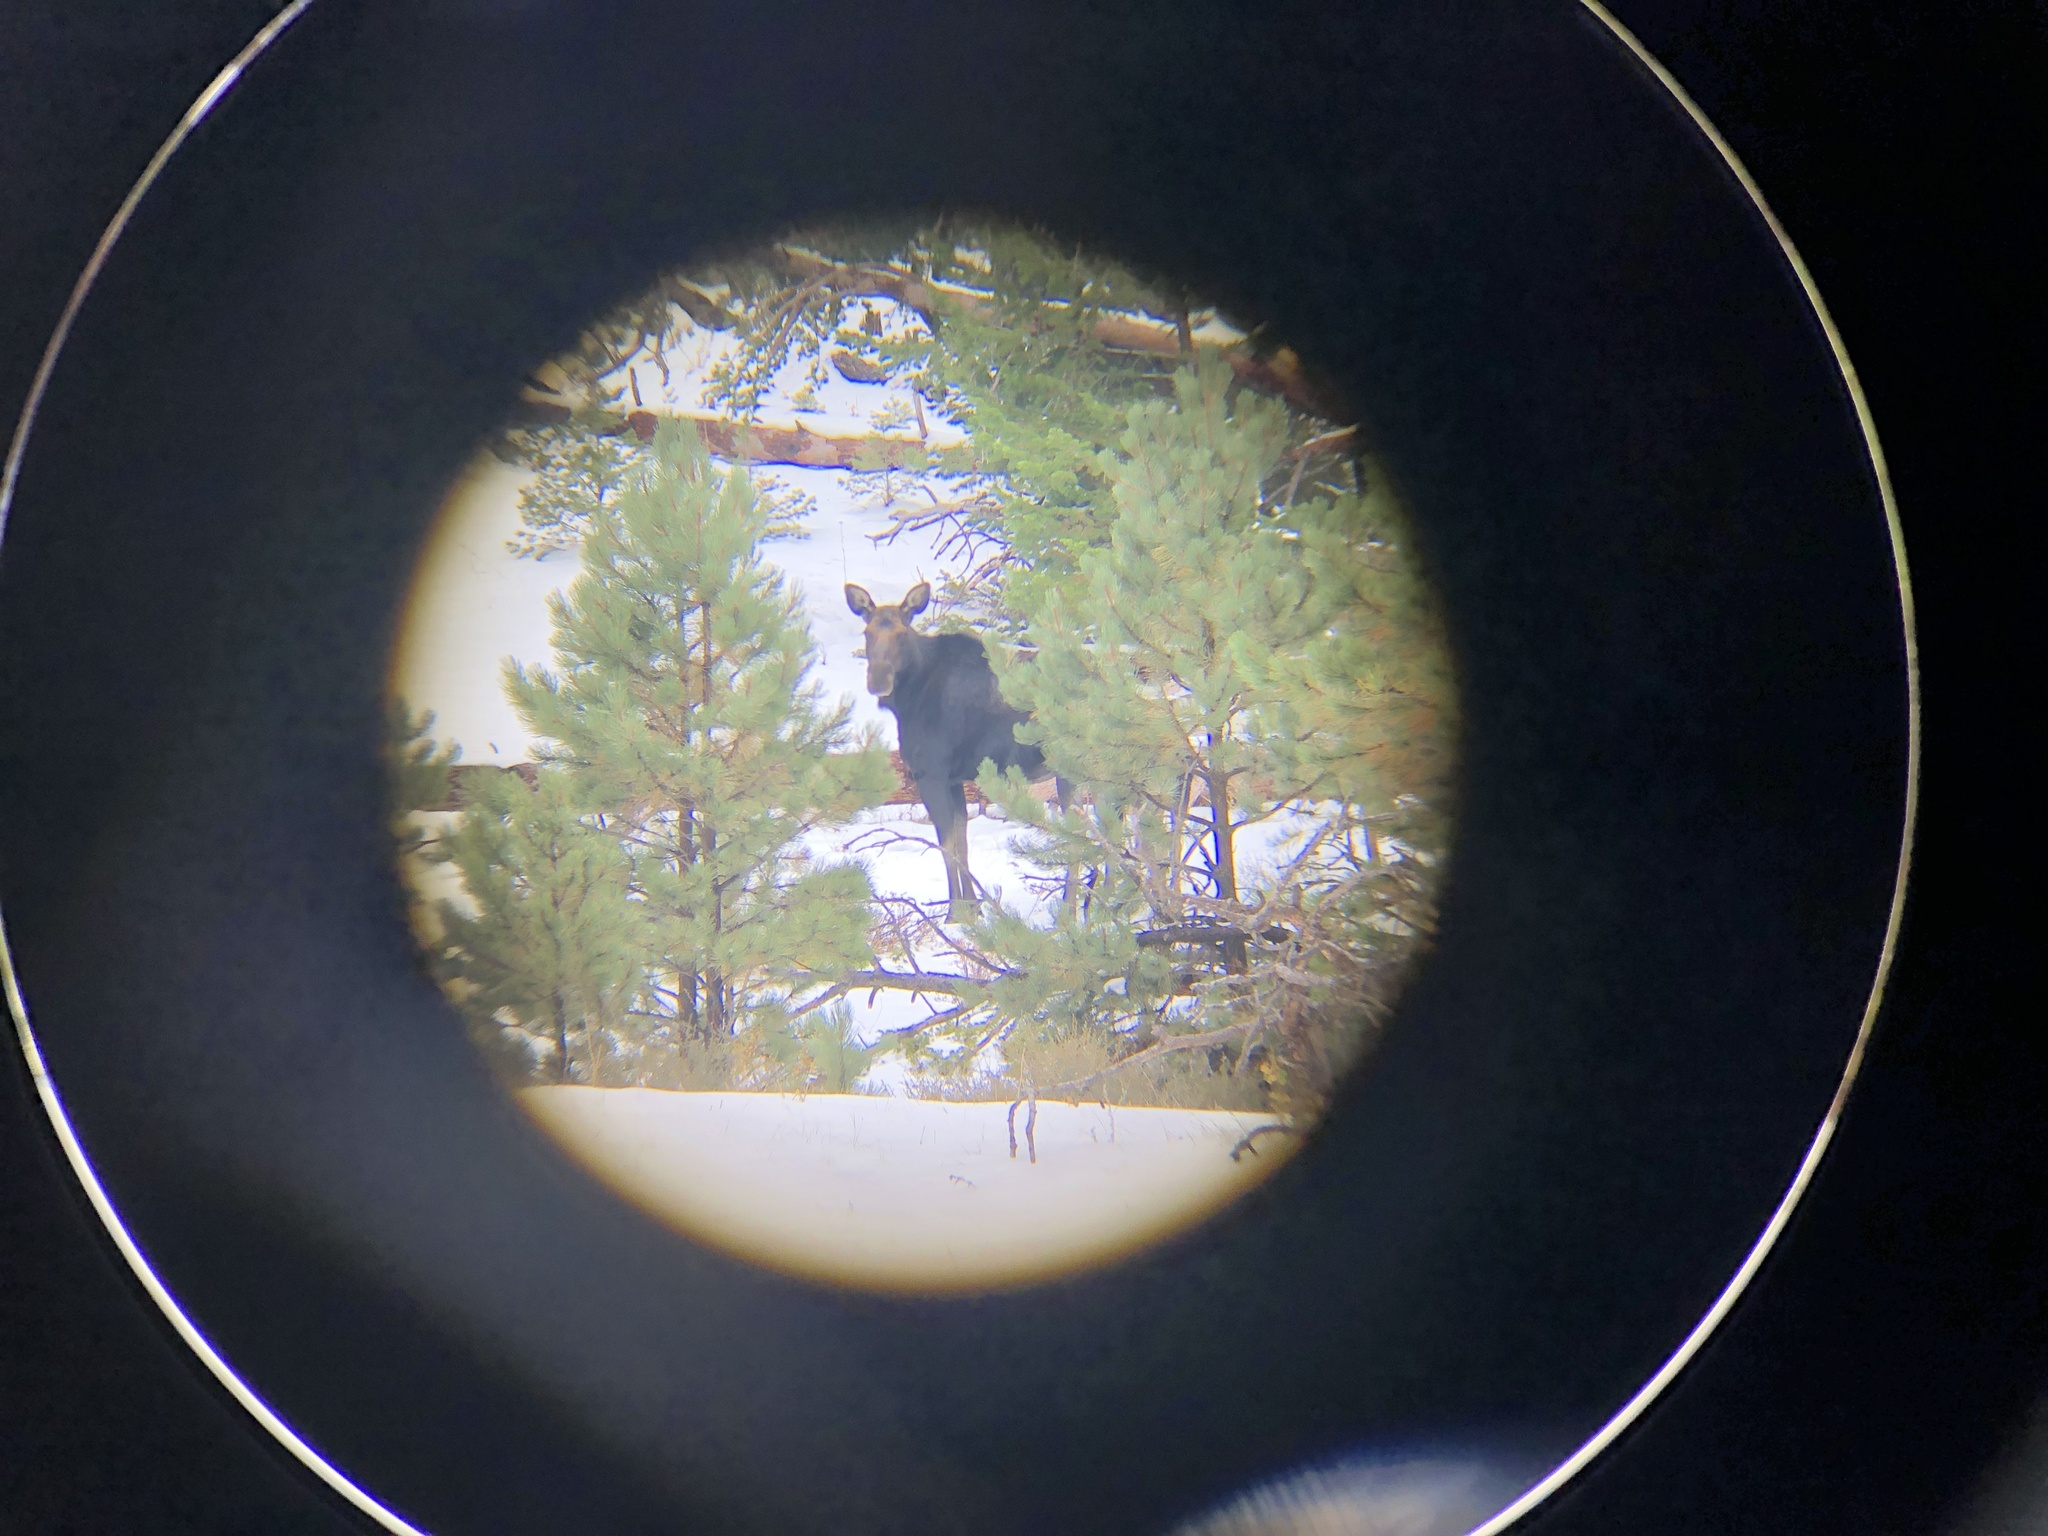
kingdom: Animalia
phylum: Chordata
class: Mammalia
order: Artiodactyla
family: Cervidae
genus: Alces
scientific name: Alces alces
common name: Moose
